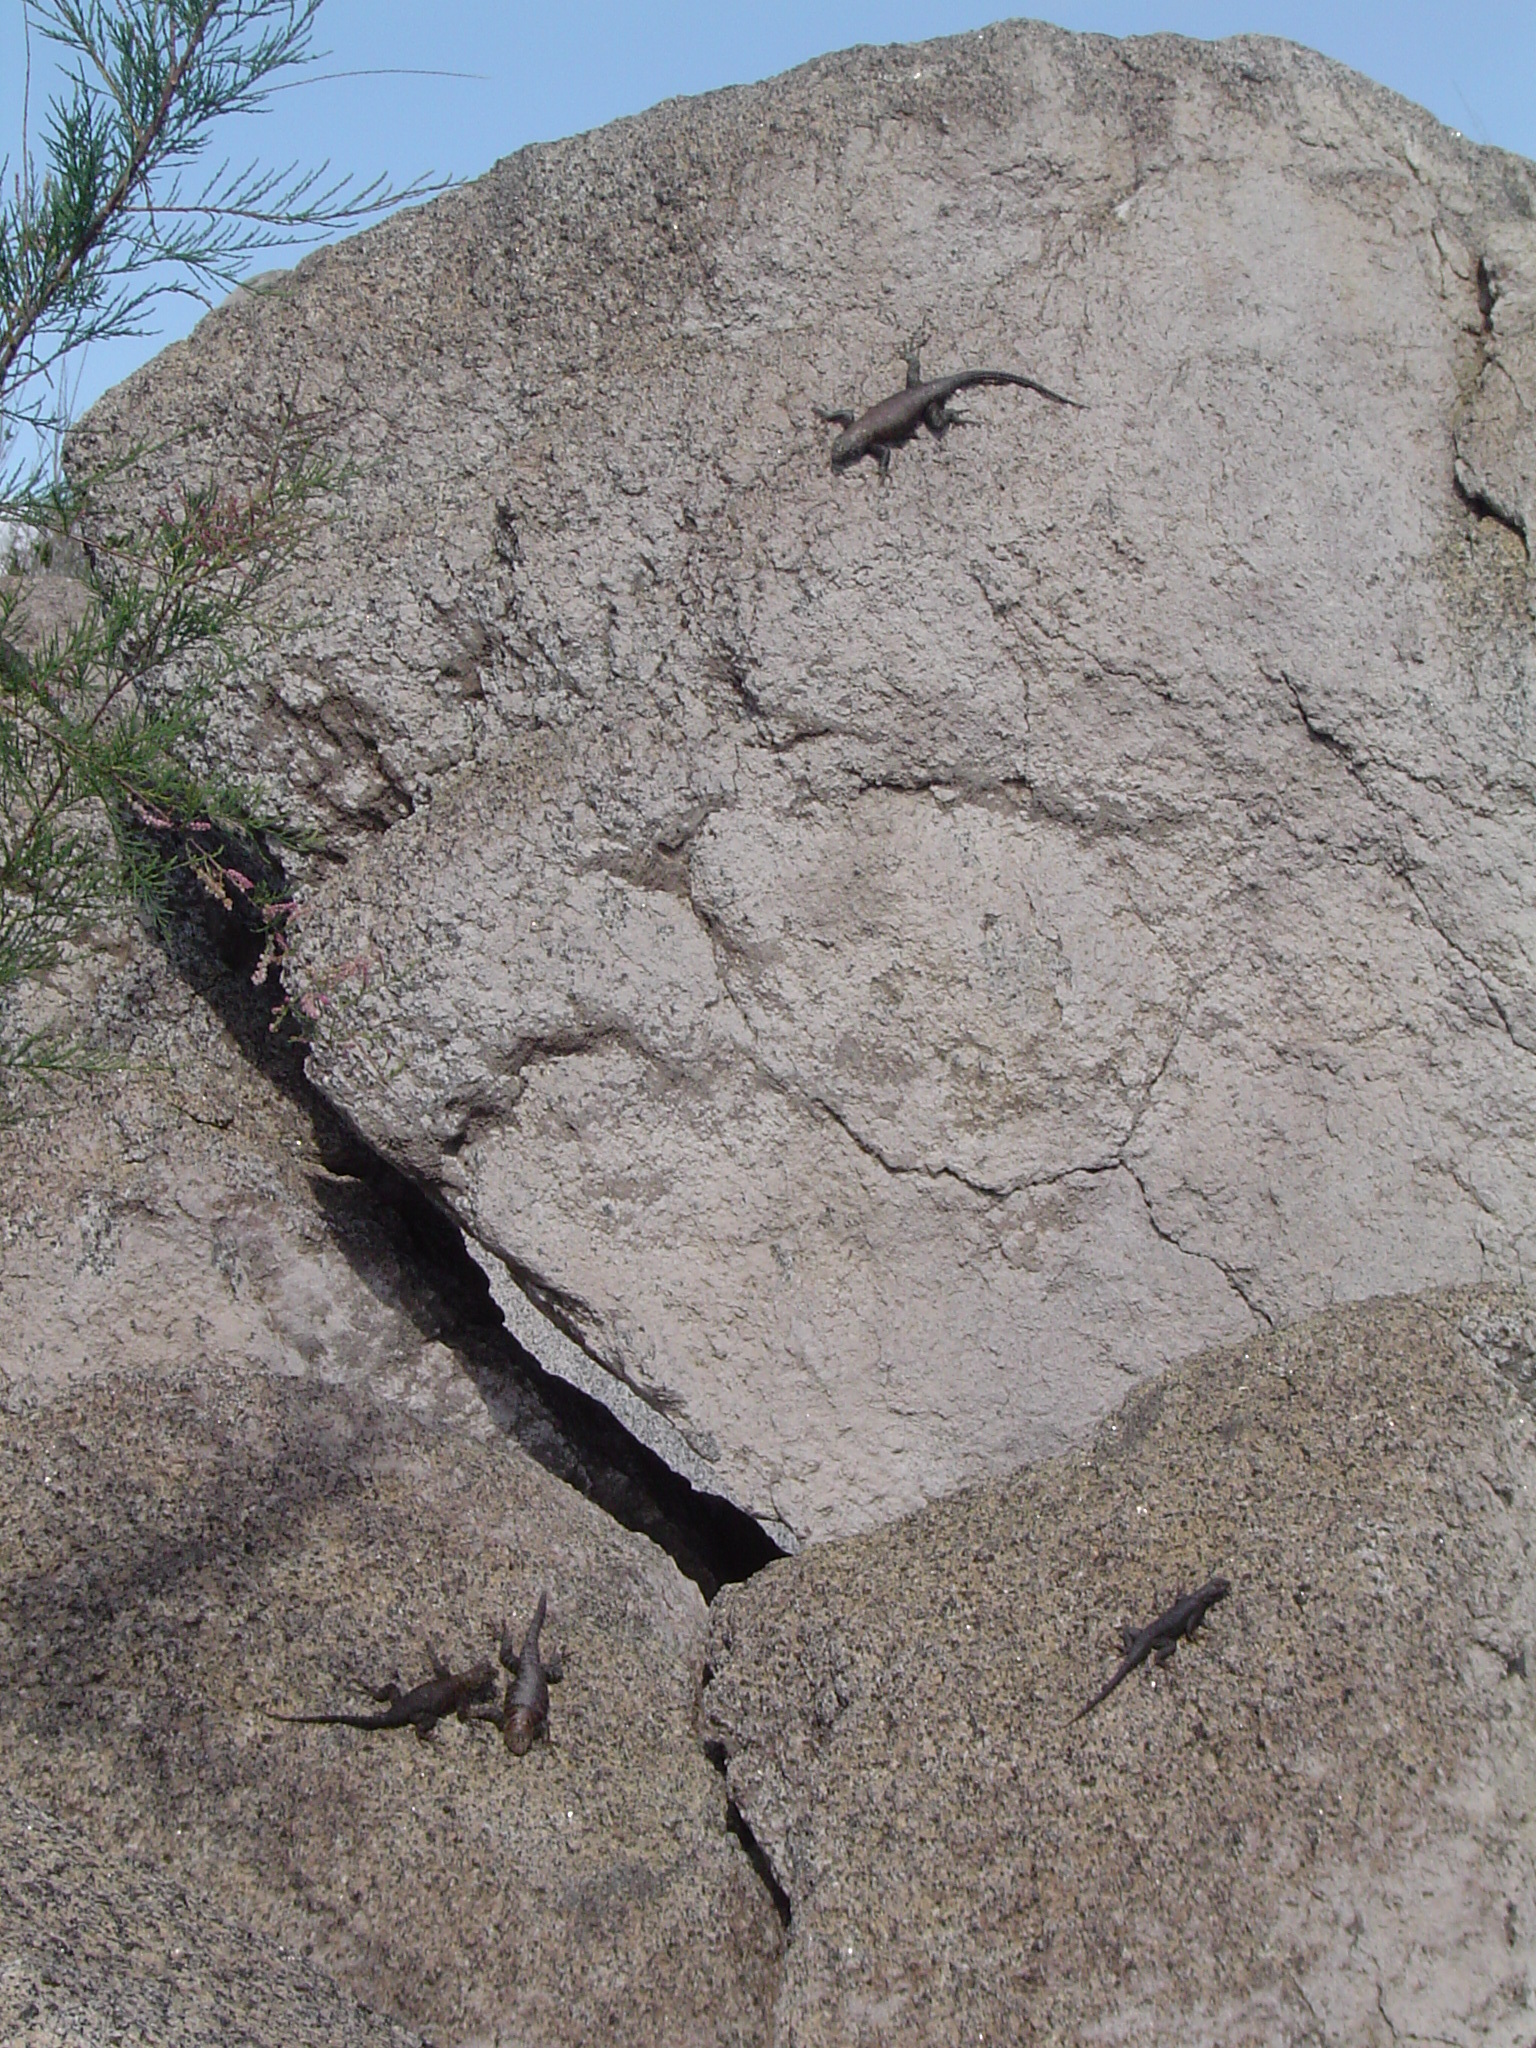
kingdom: Animalia
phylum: Chordata
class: Squamata
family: Phrynosomatidae
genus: Sceloporus
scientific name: Sceloporus orcutti
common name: Granite spiny lizard
